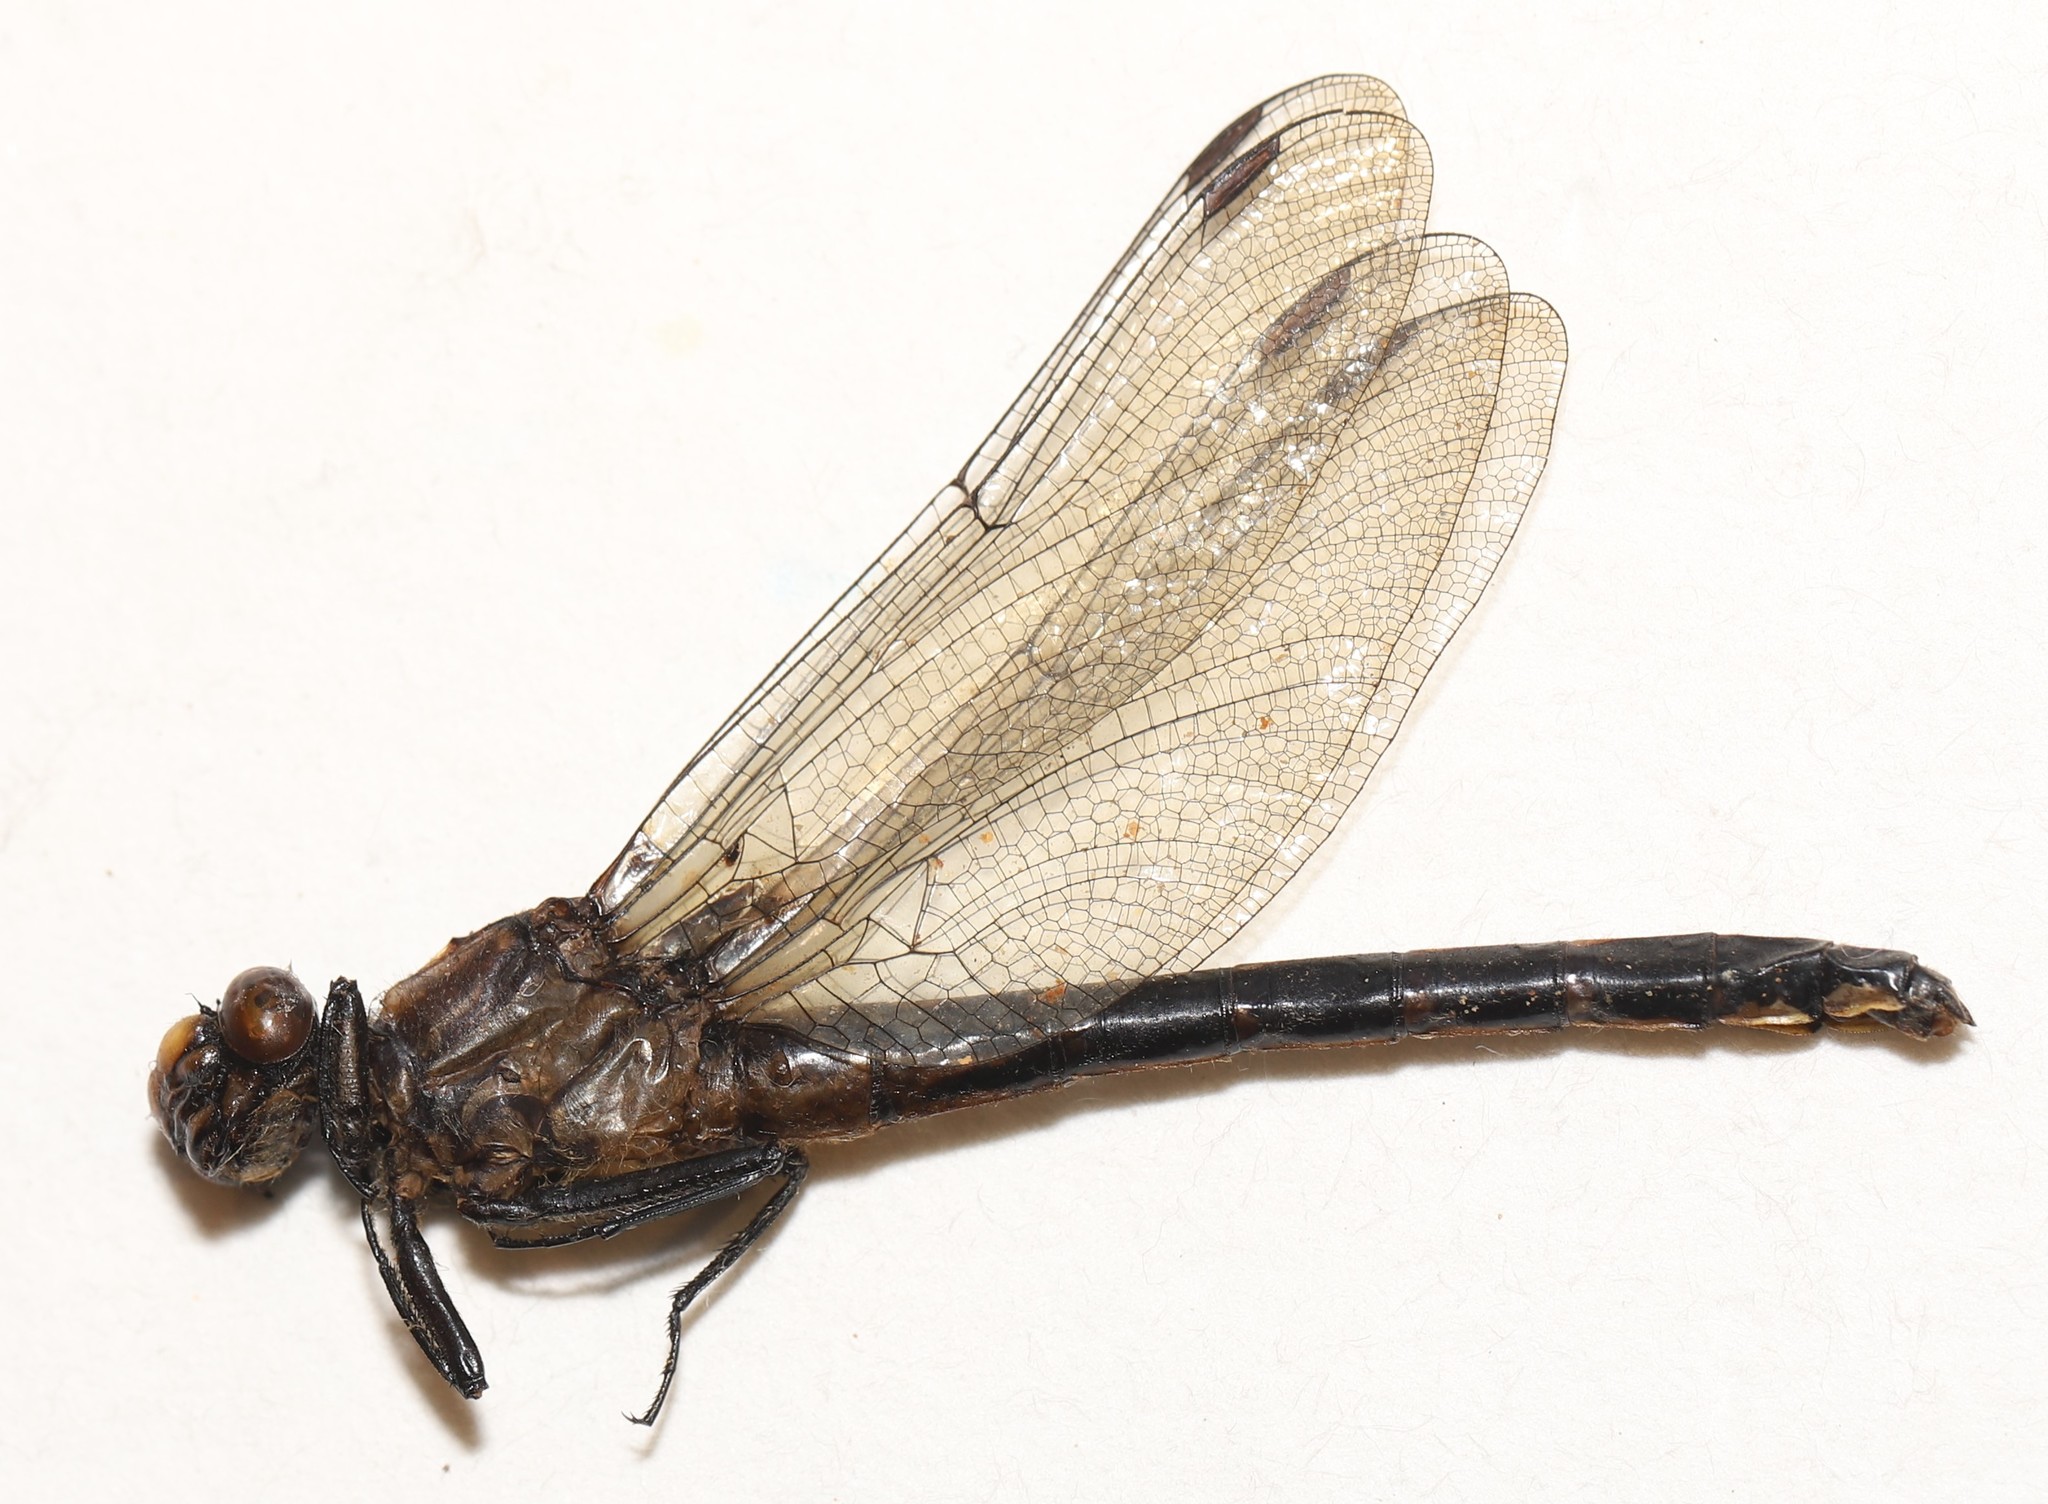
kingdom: Animalia
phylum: Arthropoda
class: Insecta
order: Odonata
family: Gomphidae
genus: Hylogomphus
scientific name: Hylogomphus adelphus
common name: Mustached clubtail
